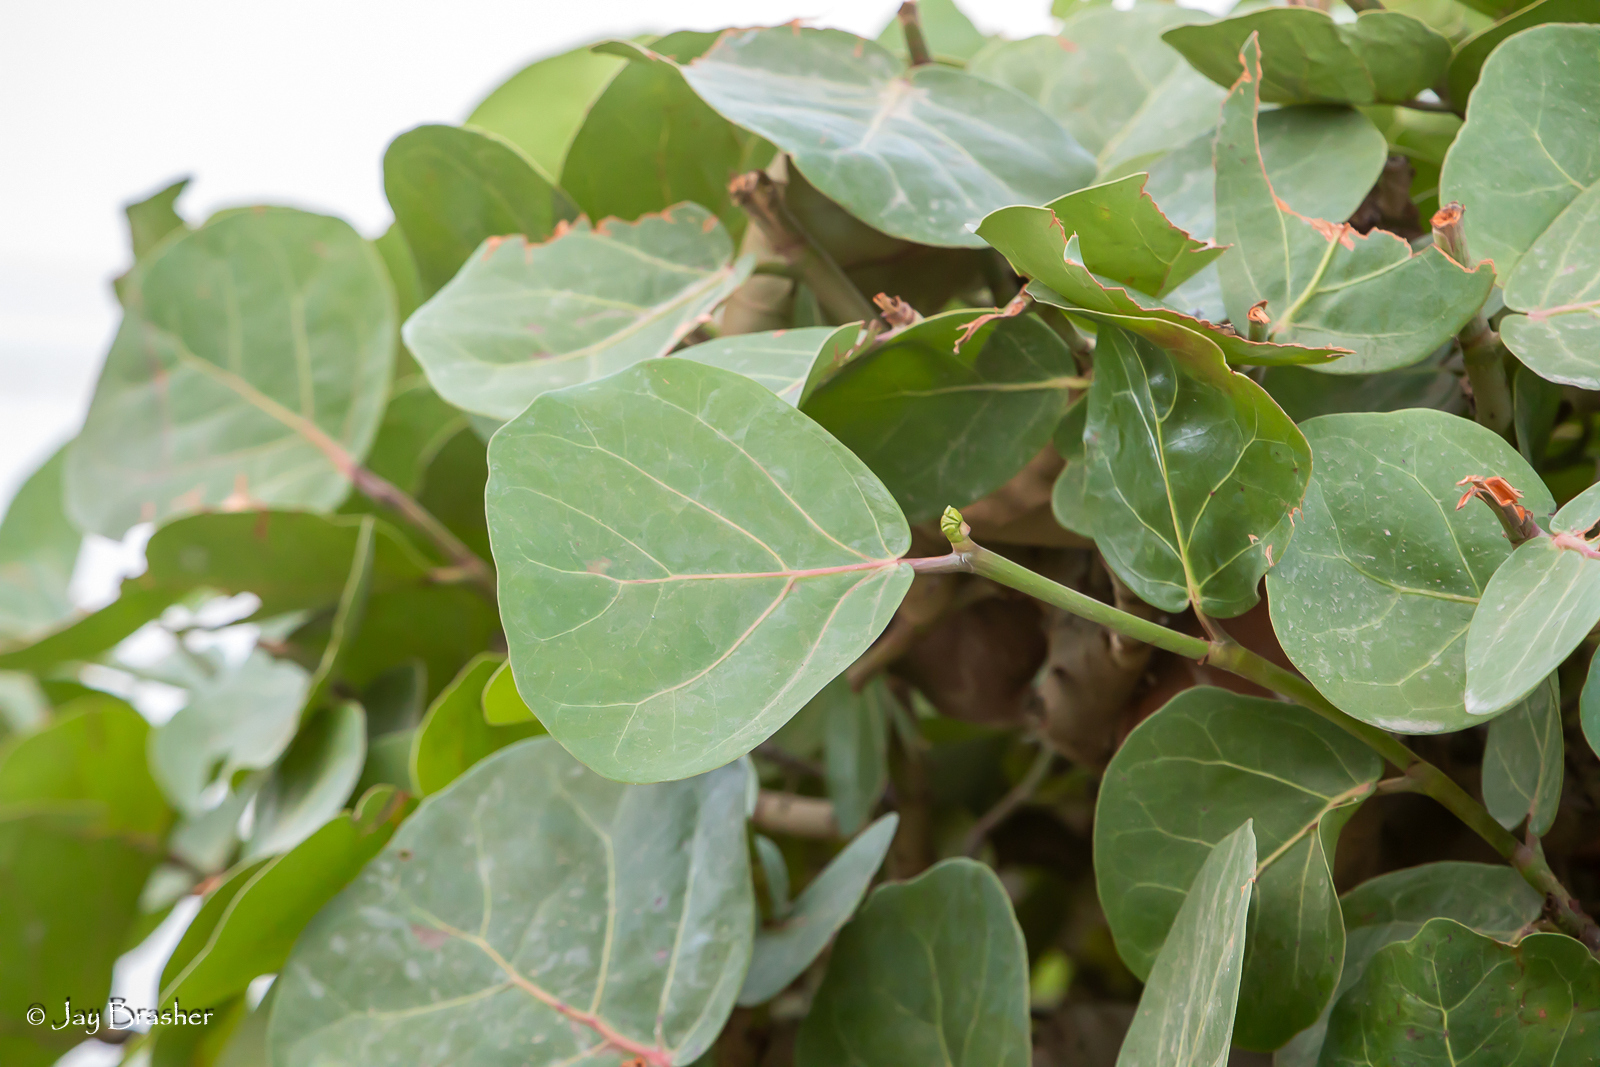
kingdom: Plantae
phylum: Tracheophyta
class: Magnoliopsida
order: Caryophyllales
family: Polygonaceae
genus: Coccoloba
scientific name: Coccoloba uvifera
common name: Seagrape
